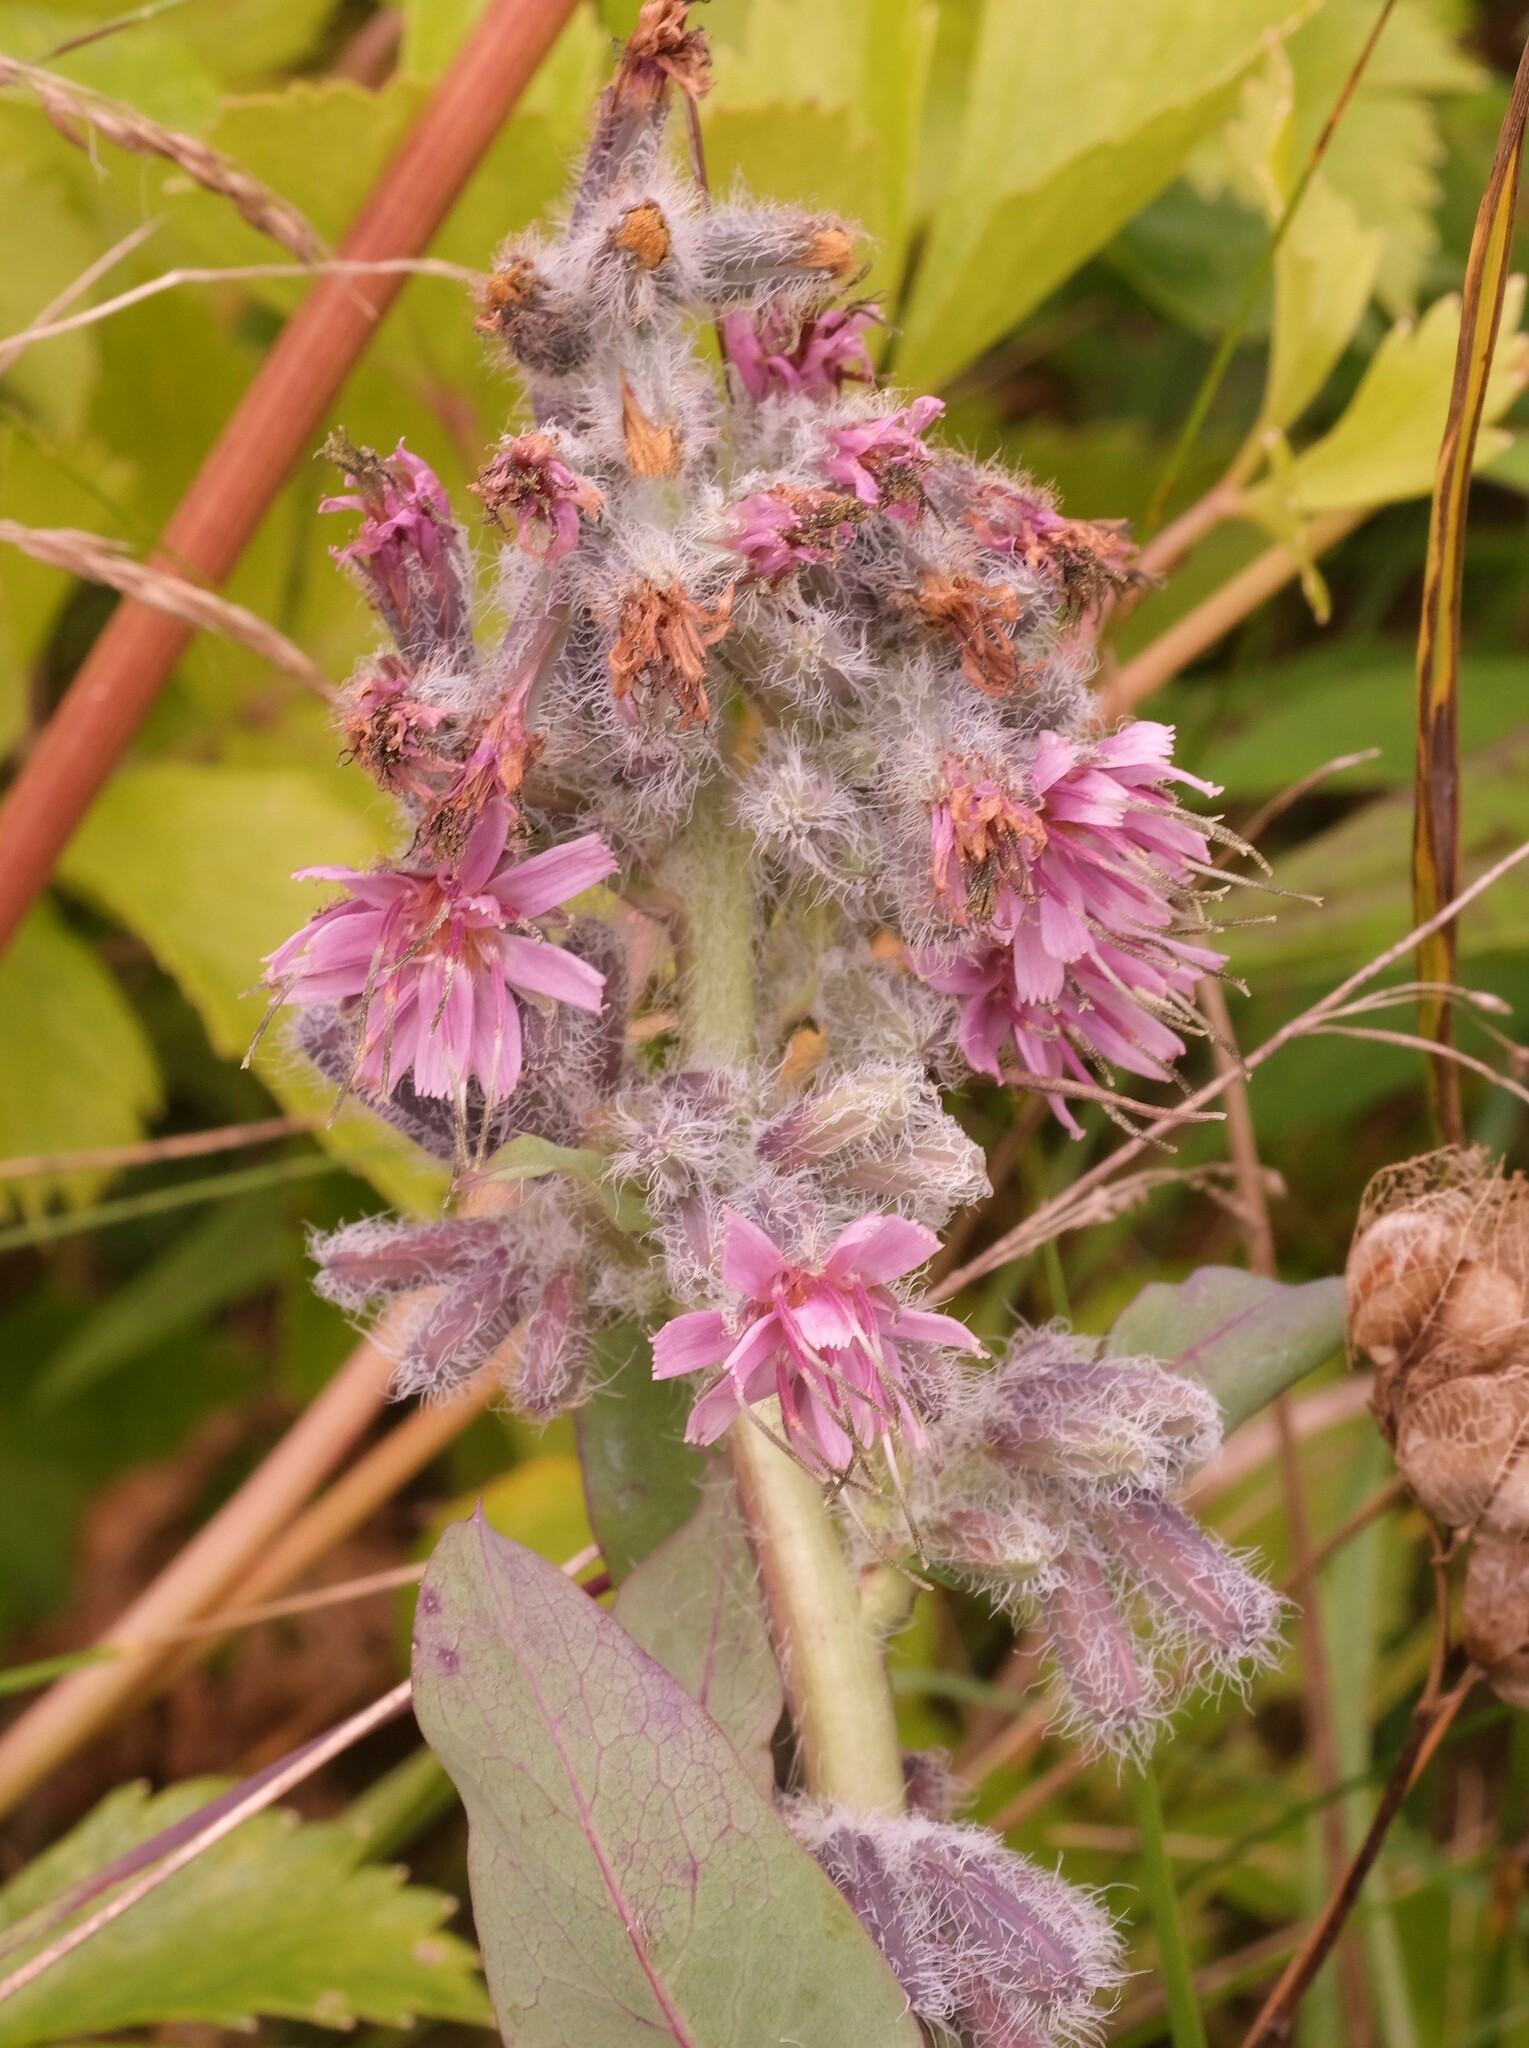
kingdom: Plantae
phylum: Tracheophyta
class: Magnoliopsida
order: Asterales
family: Asteraceae
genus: Nabalus
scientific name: Nabalus racemosus
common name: Glaucous white lettuce
